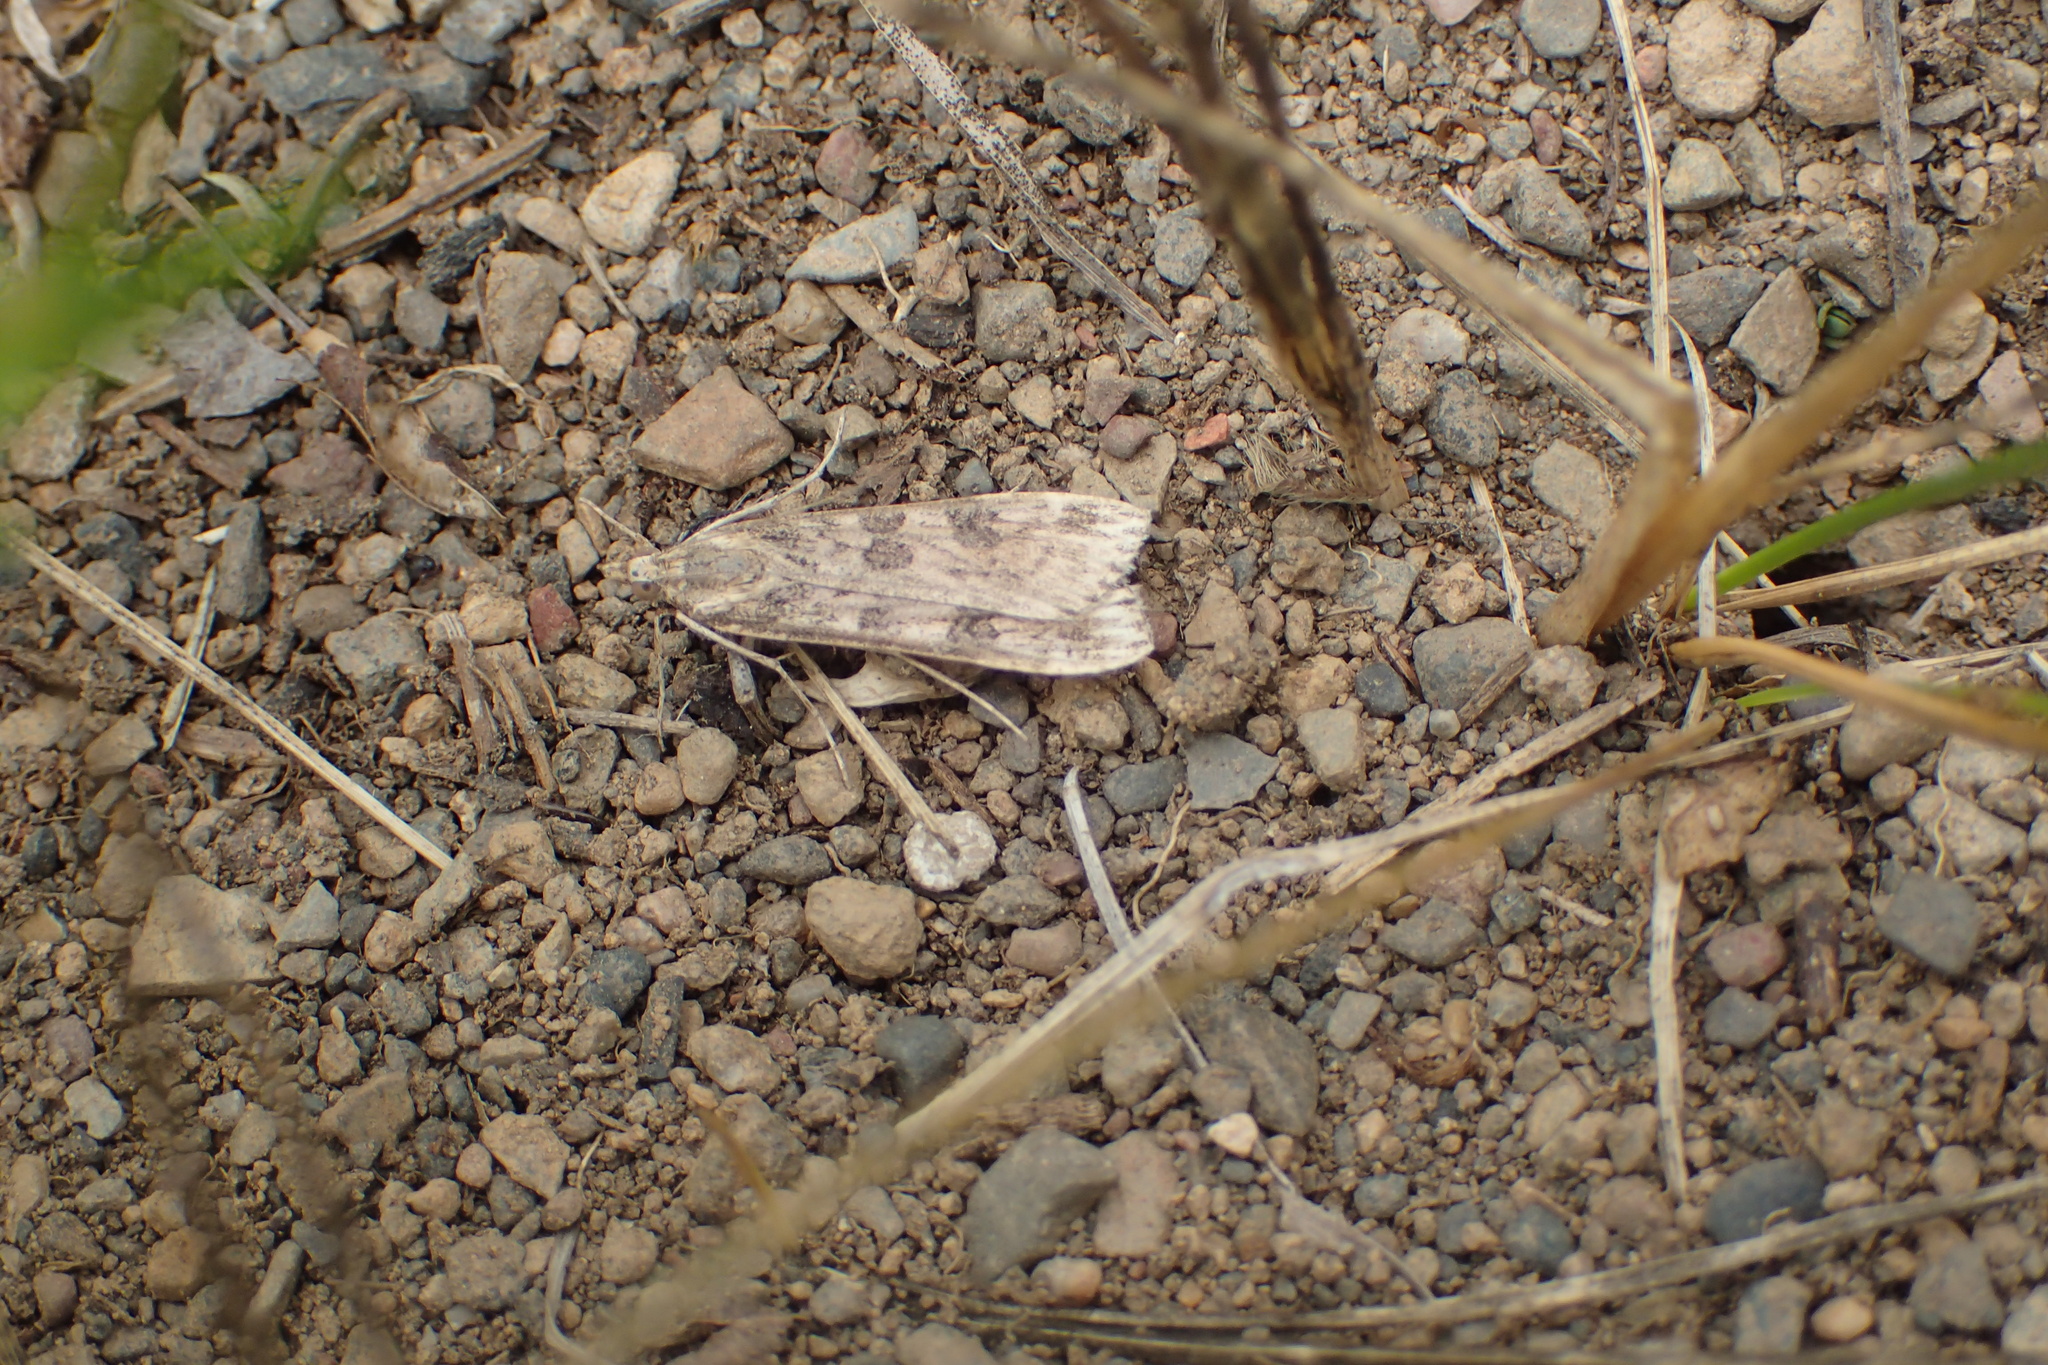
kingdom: Animalia
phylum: Arthropoda
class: Insecta
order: Lepidoptera
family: Crambidae
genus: Nomophila
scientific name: Nomophila nearctica
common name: American rush veneer
